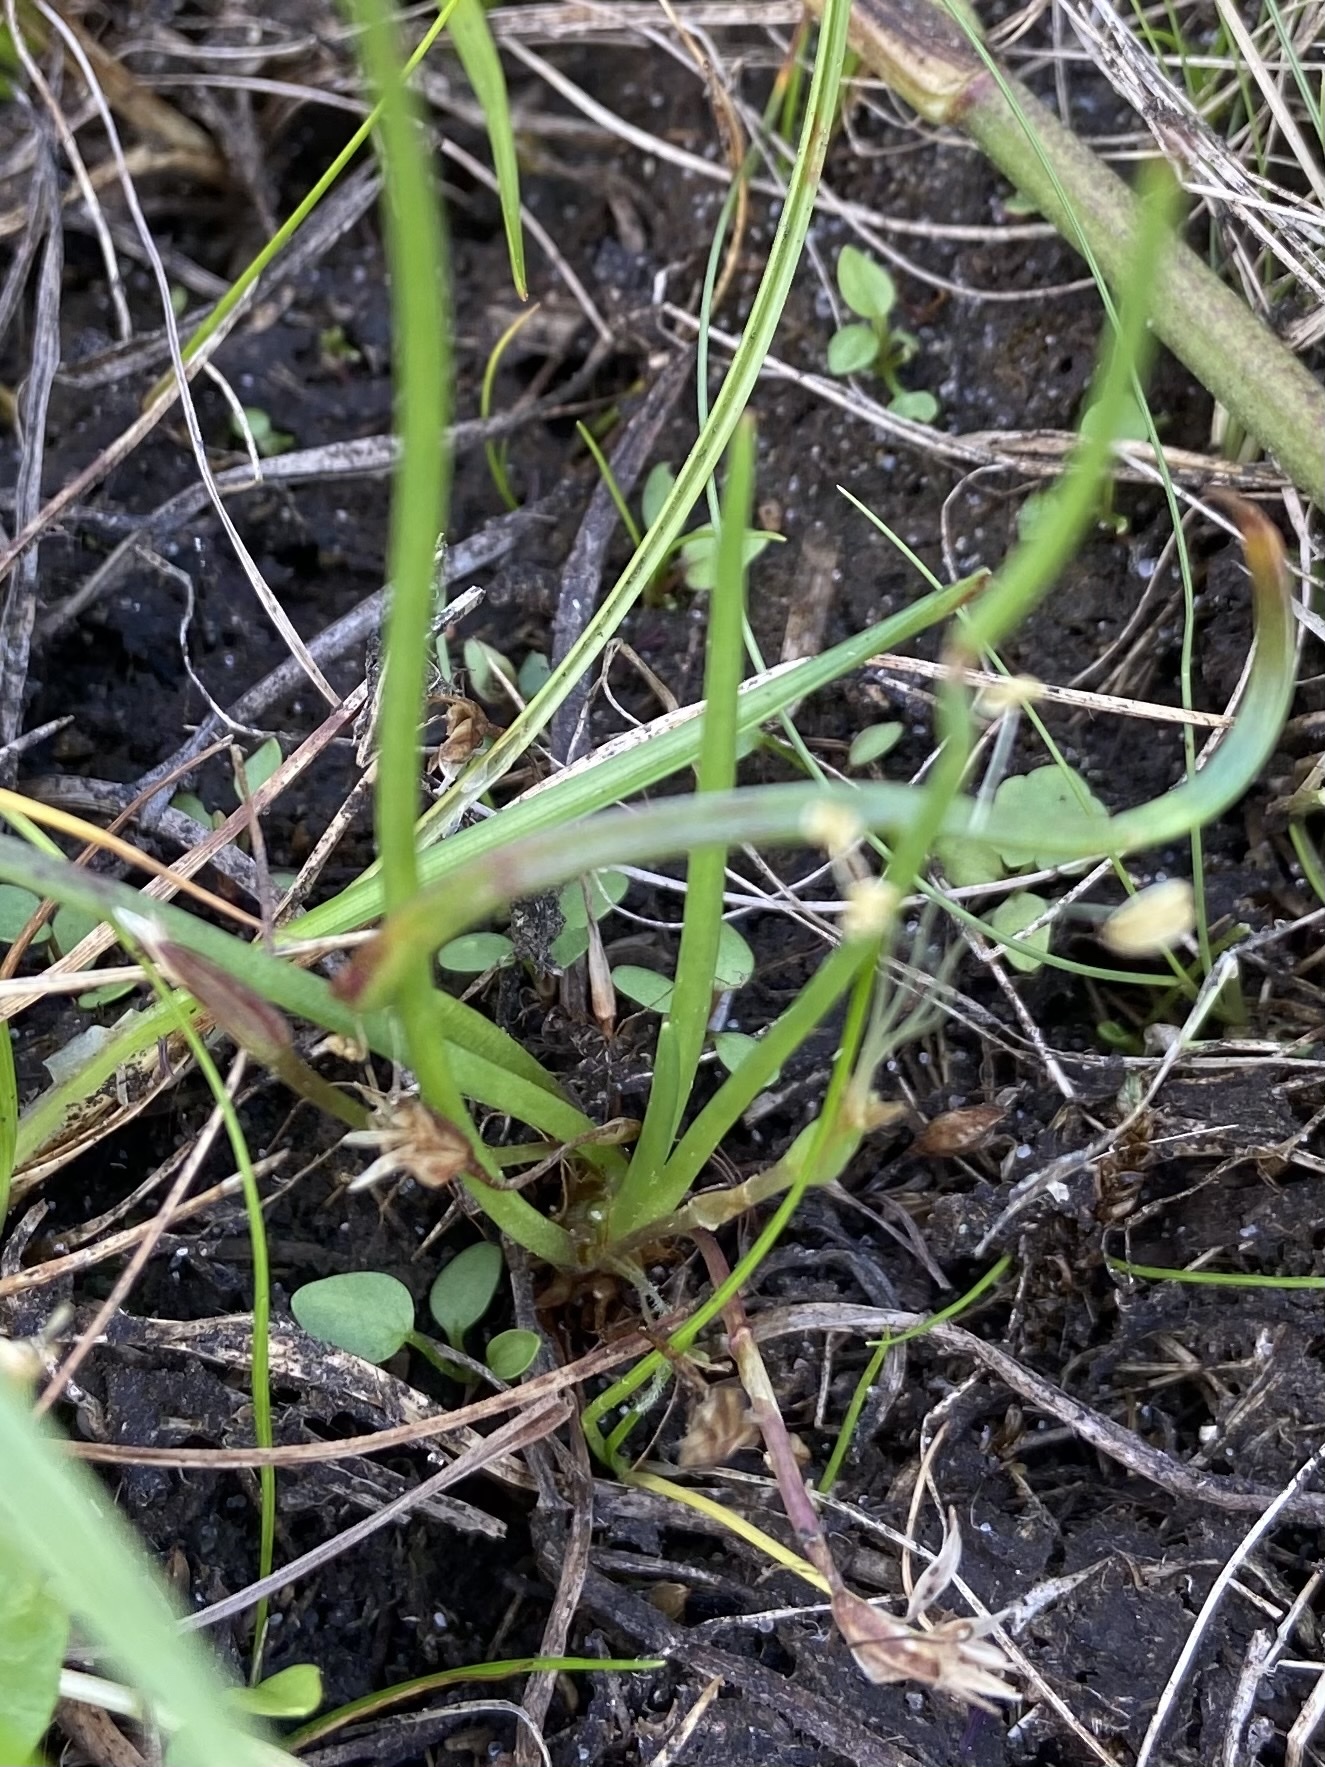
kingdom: Plantae
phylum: Tracheophyta
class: Magnoliopsida
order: Lamiales
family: Plantaginaceae
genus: Littorella
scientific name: Littorella uniflora
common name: Shoreweed
